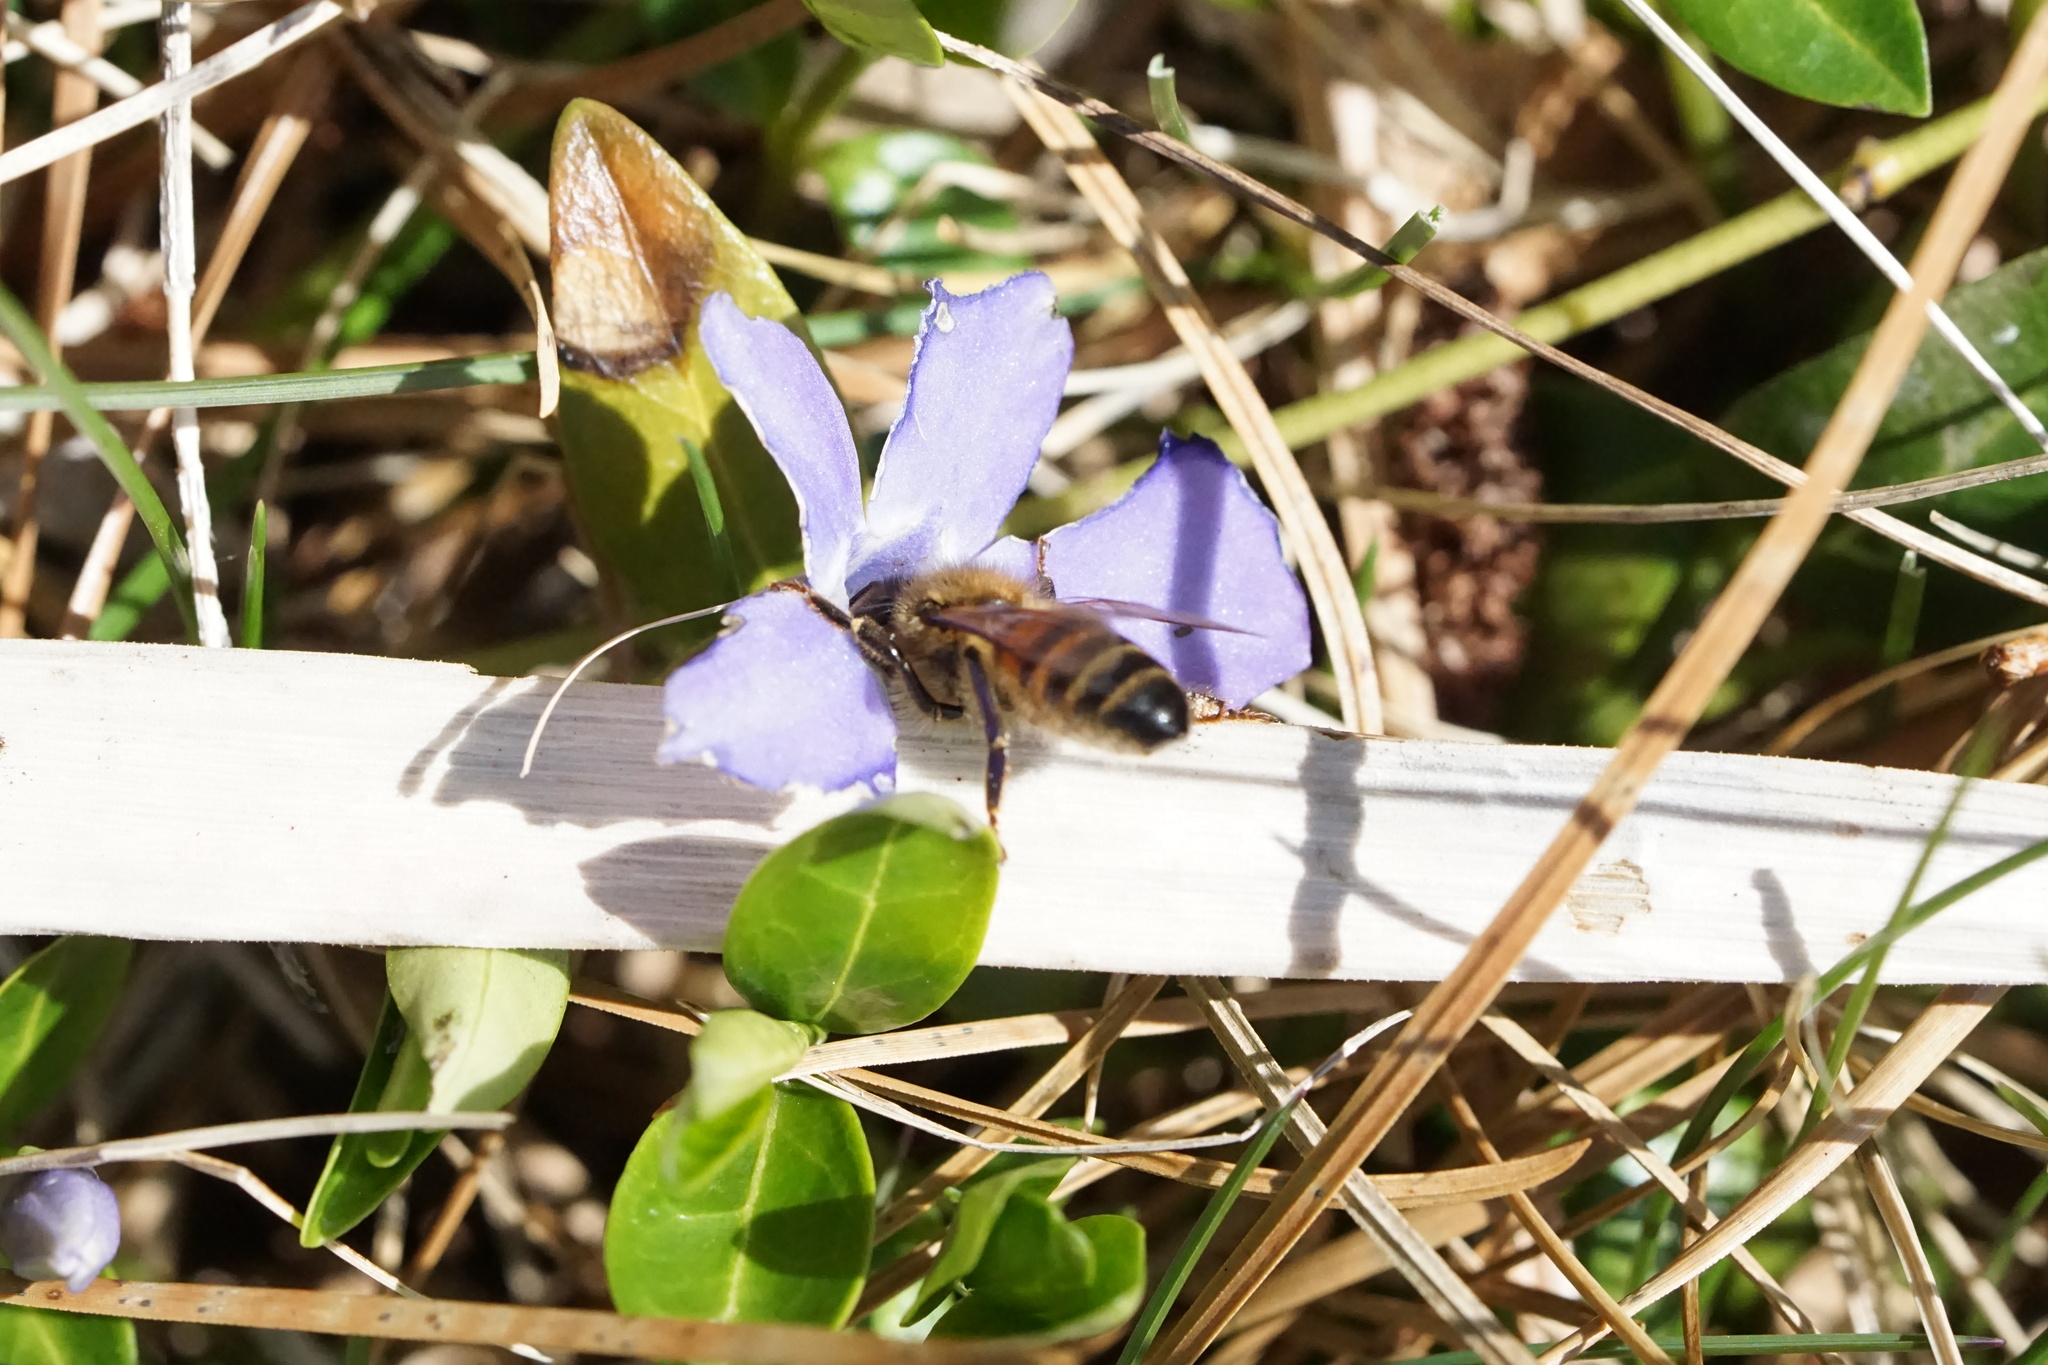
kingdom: Animalia
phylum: Arthropoda
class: Insecta
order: Hymenoptera
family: Apidae
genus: Apis
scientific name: Apis mellifera
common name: Honey bee
